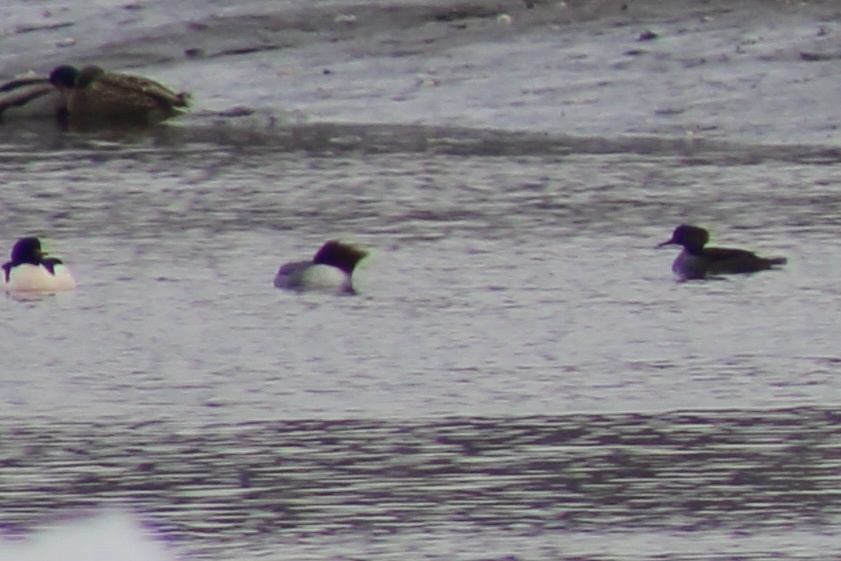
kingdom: Animalia
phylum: Chordata
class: Aves
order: Anseriformes
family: Anatidae
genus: Mergus
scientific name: Mergus merganser
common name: Common merganser
